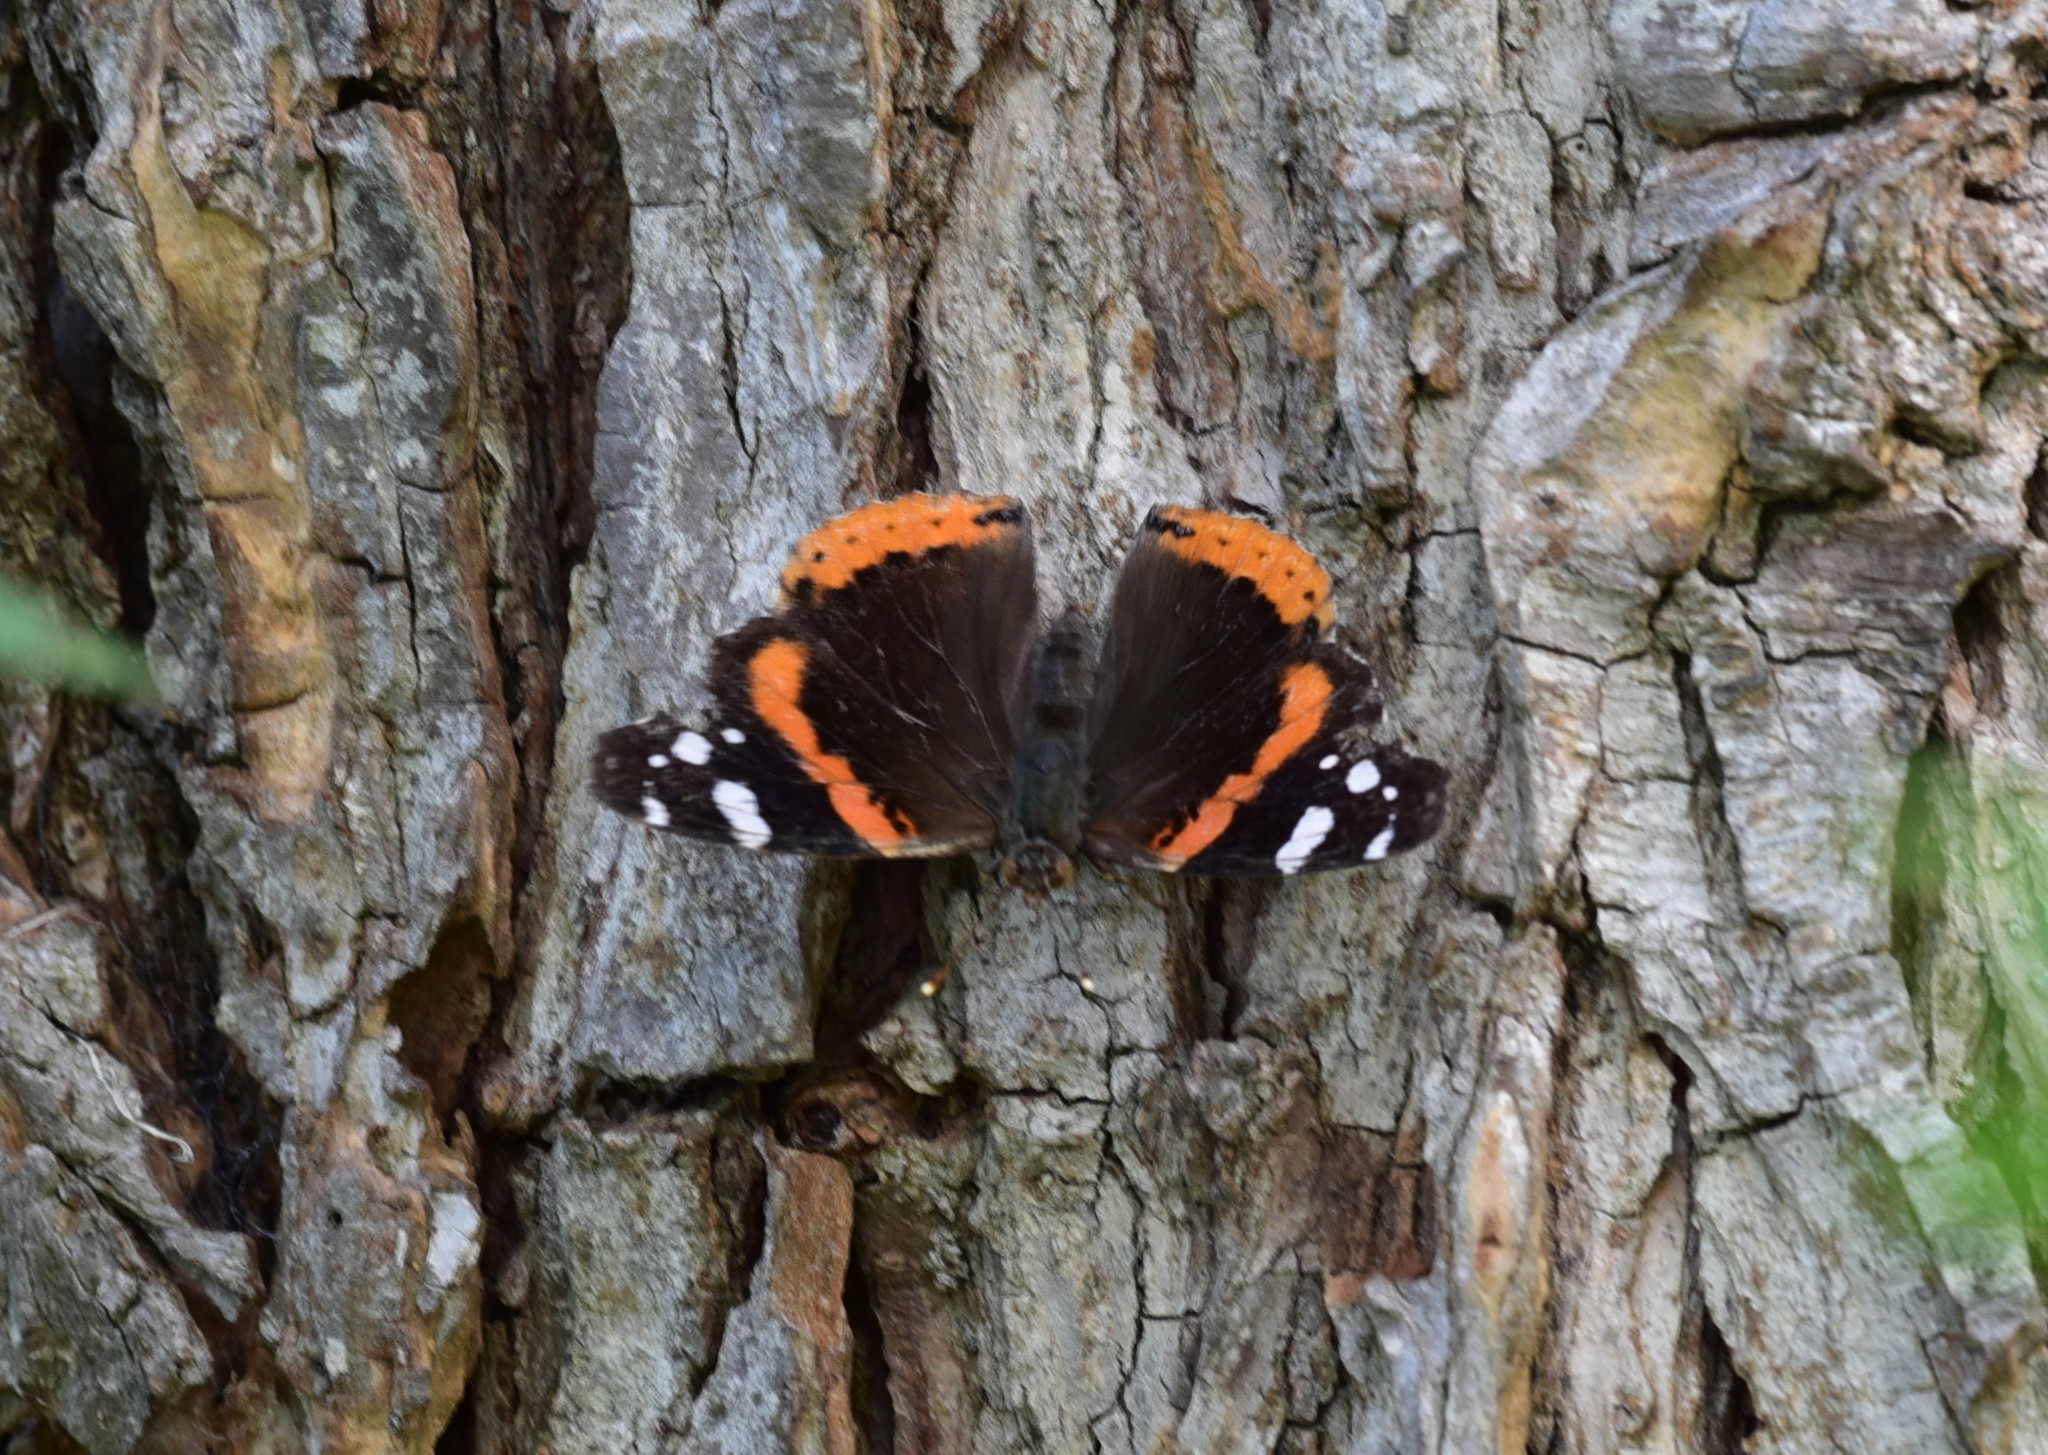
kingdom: Animalia
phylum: Arthropoda
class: Insecta
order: Lepidoptera
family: Nymphalidae
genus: Vanessa
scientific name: Vanessa atalanta
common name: Red admiral
